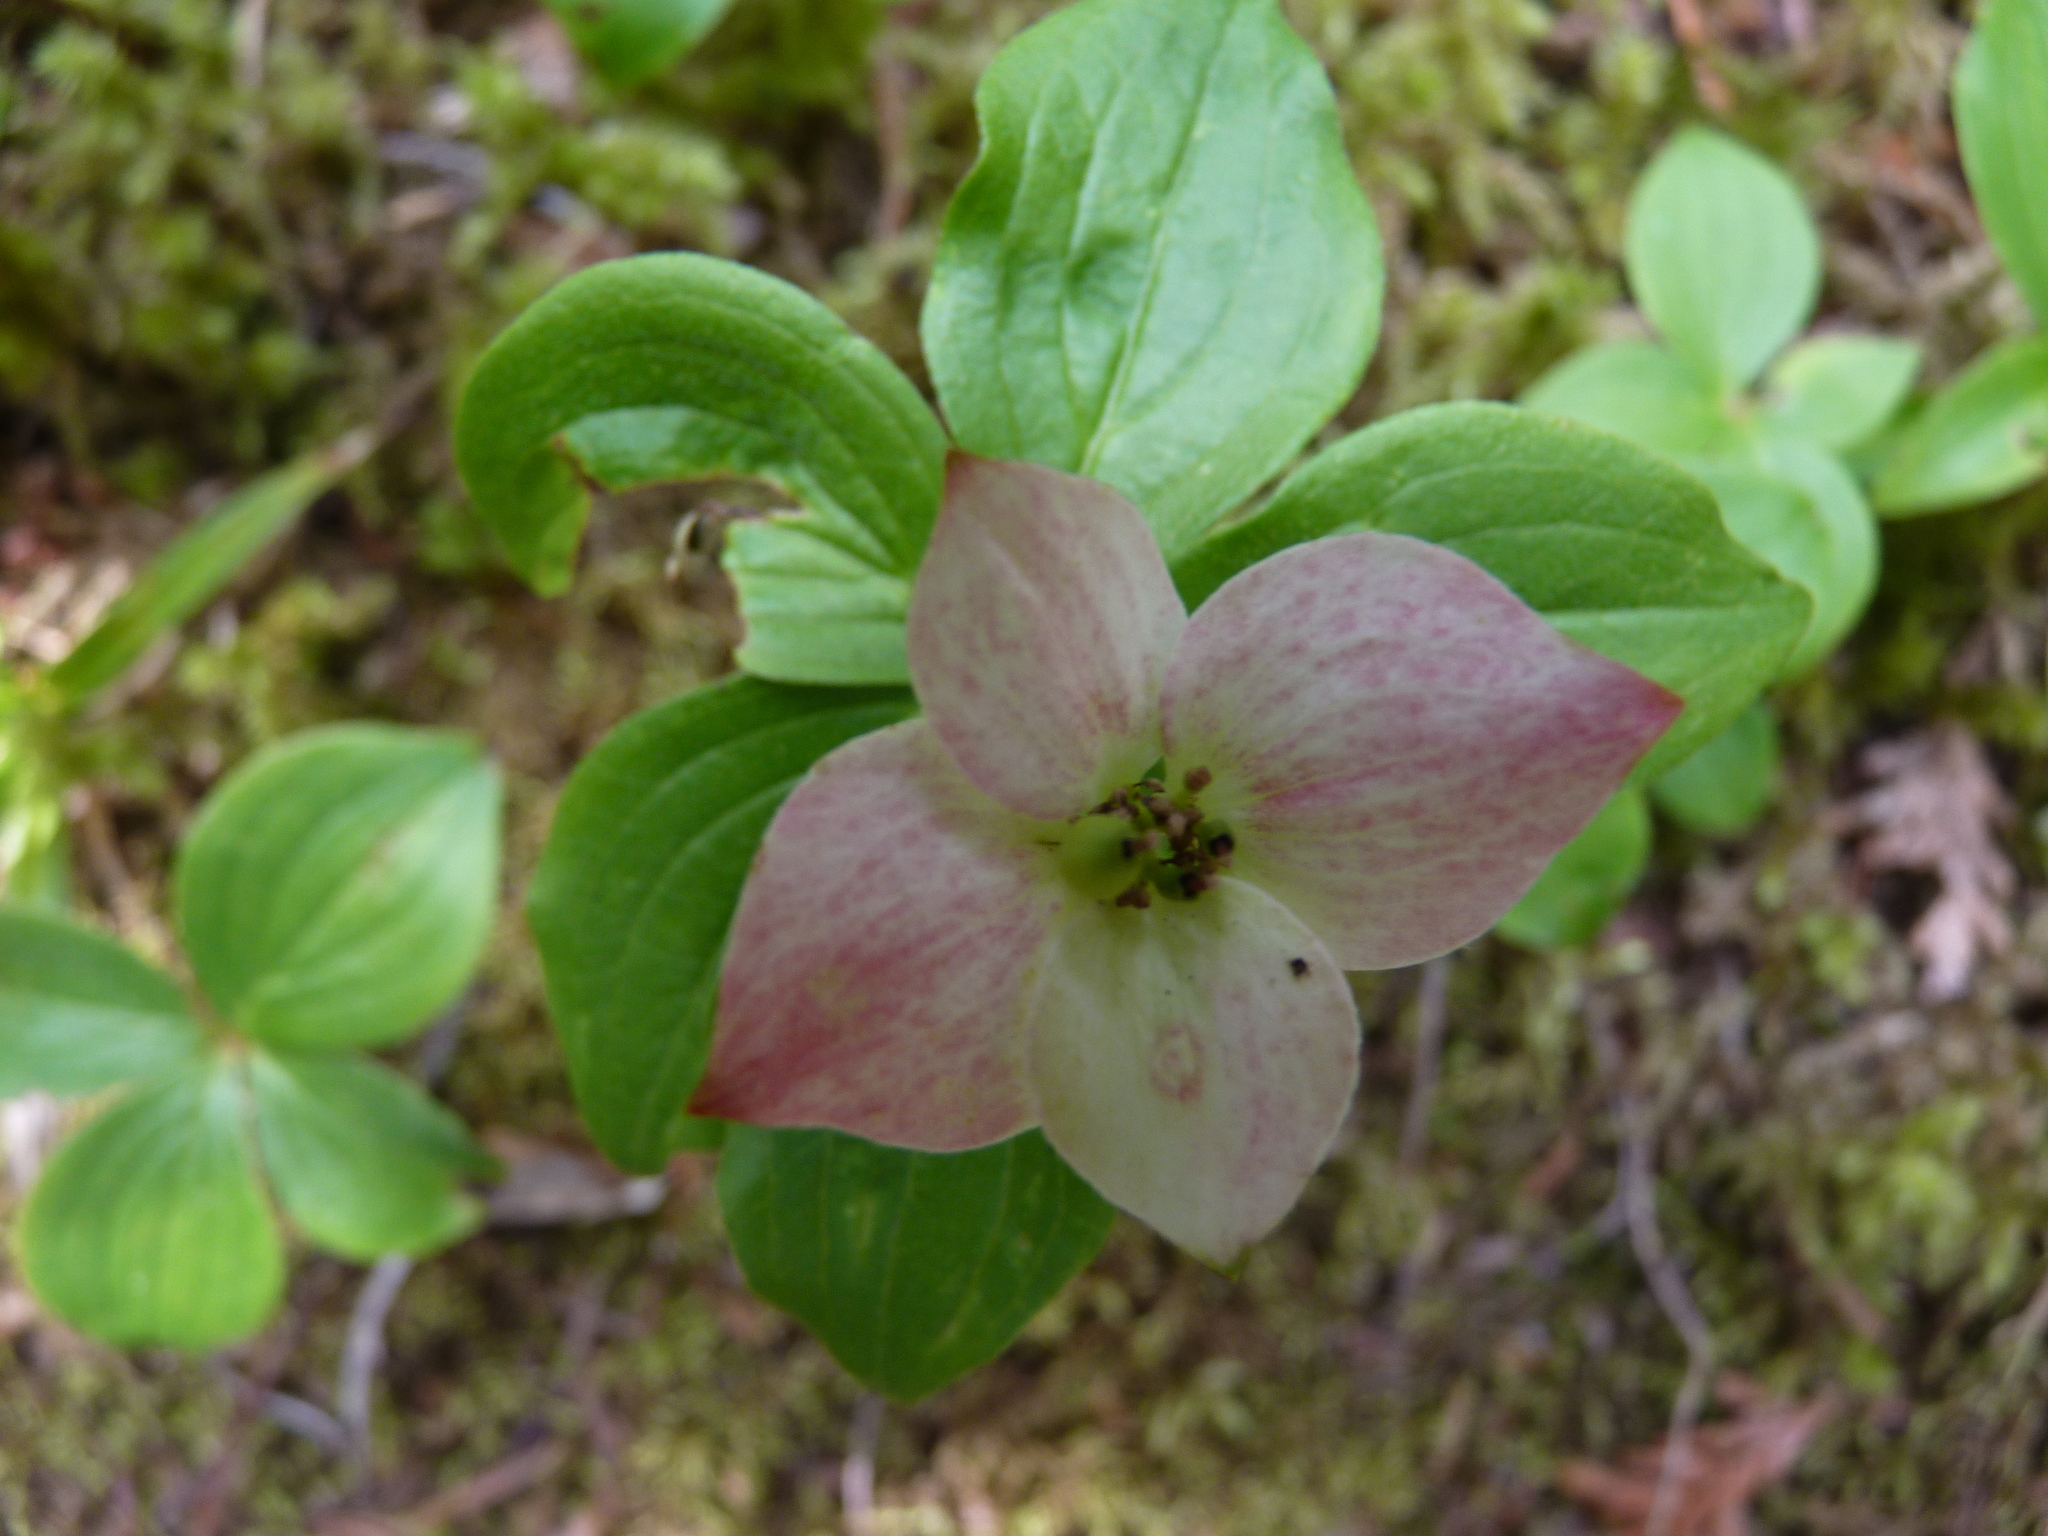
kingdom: Plantae
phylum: Tracheophyta
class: Magnoliopsida
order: Cornales
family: Cornaceae
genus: Cornus
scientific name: Cornus canadensis
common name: Creeping dogwood
